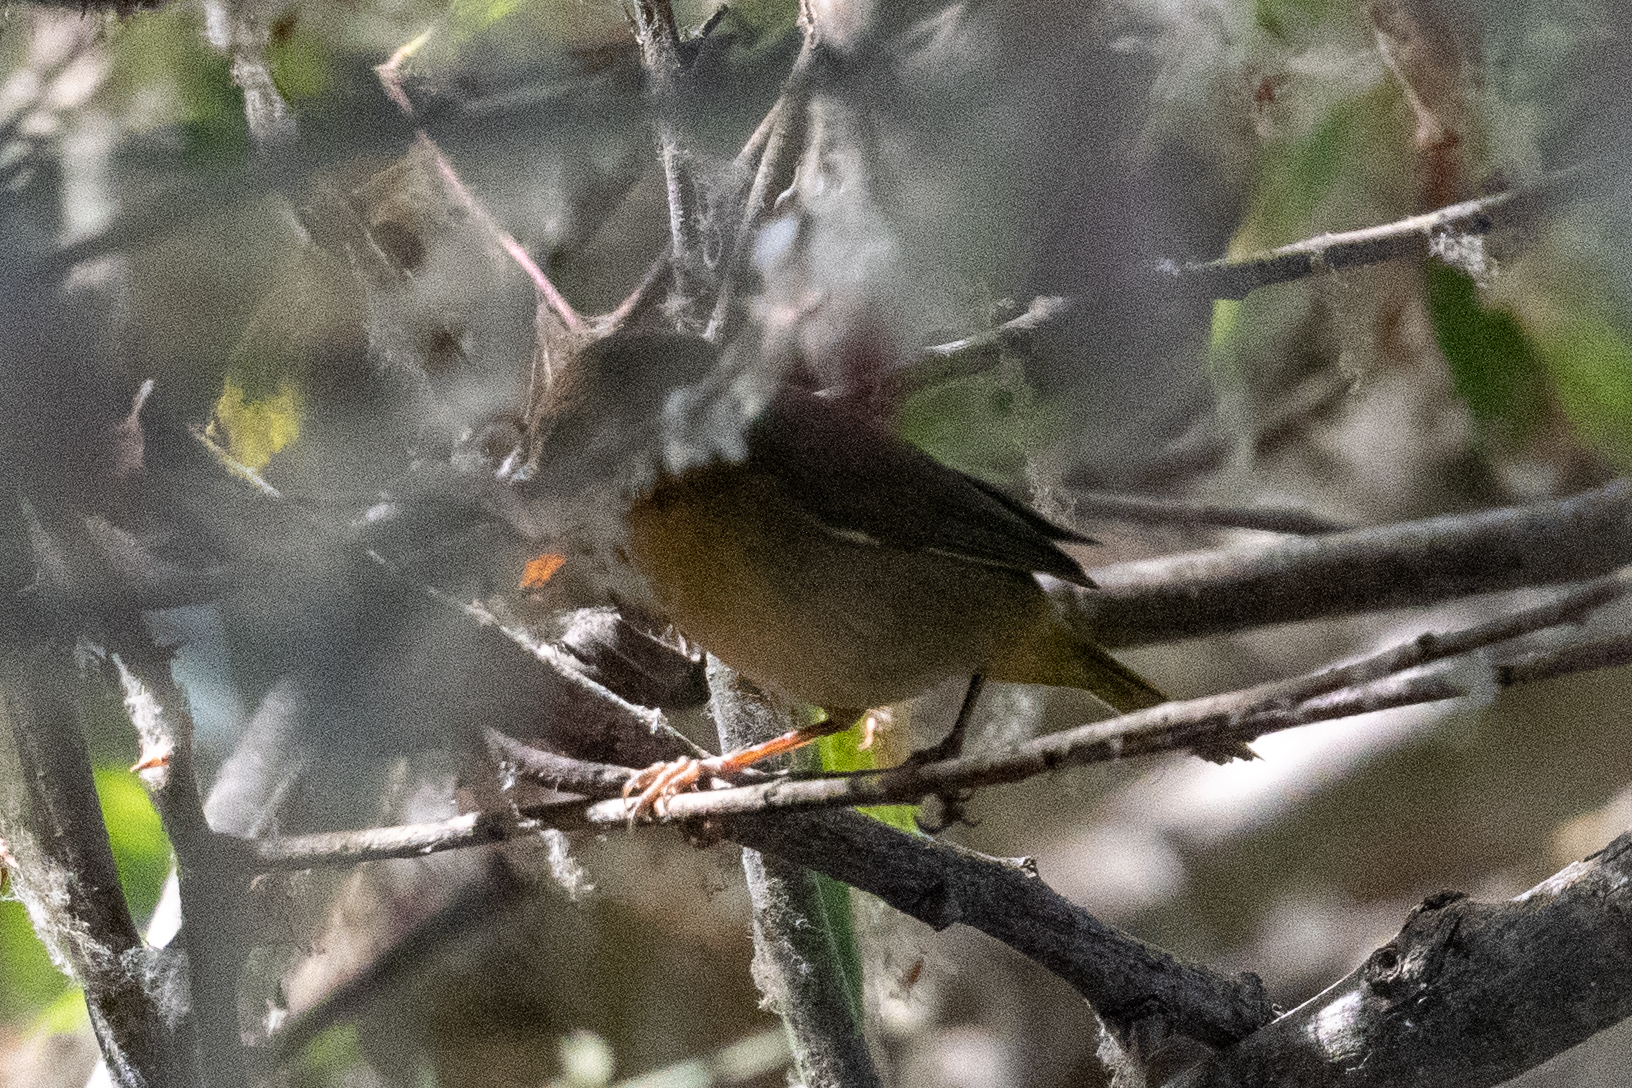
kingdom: Animalia
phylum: Chordata
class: Aves
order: Passeriformes
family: Parulidae
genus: Geothlypis
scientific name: Geothlypis trichas
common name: Common yellowthroat
